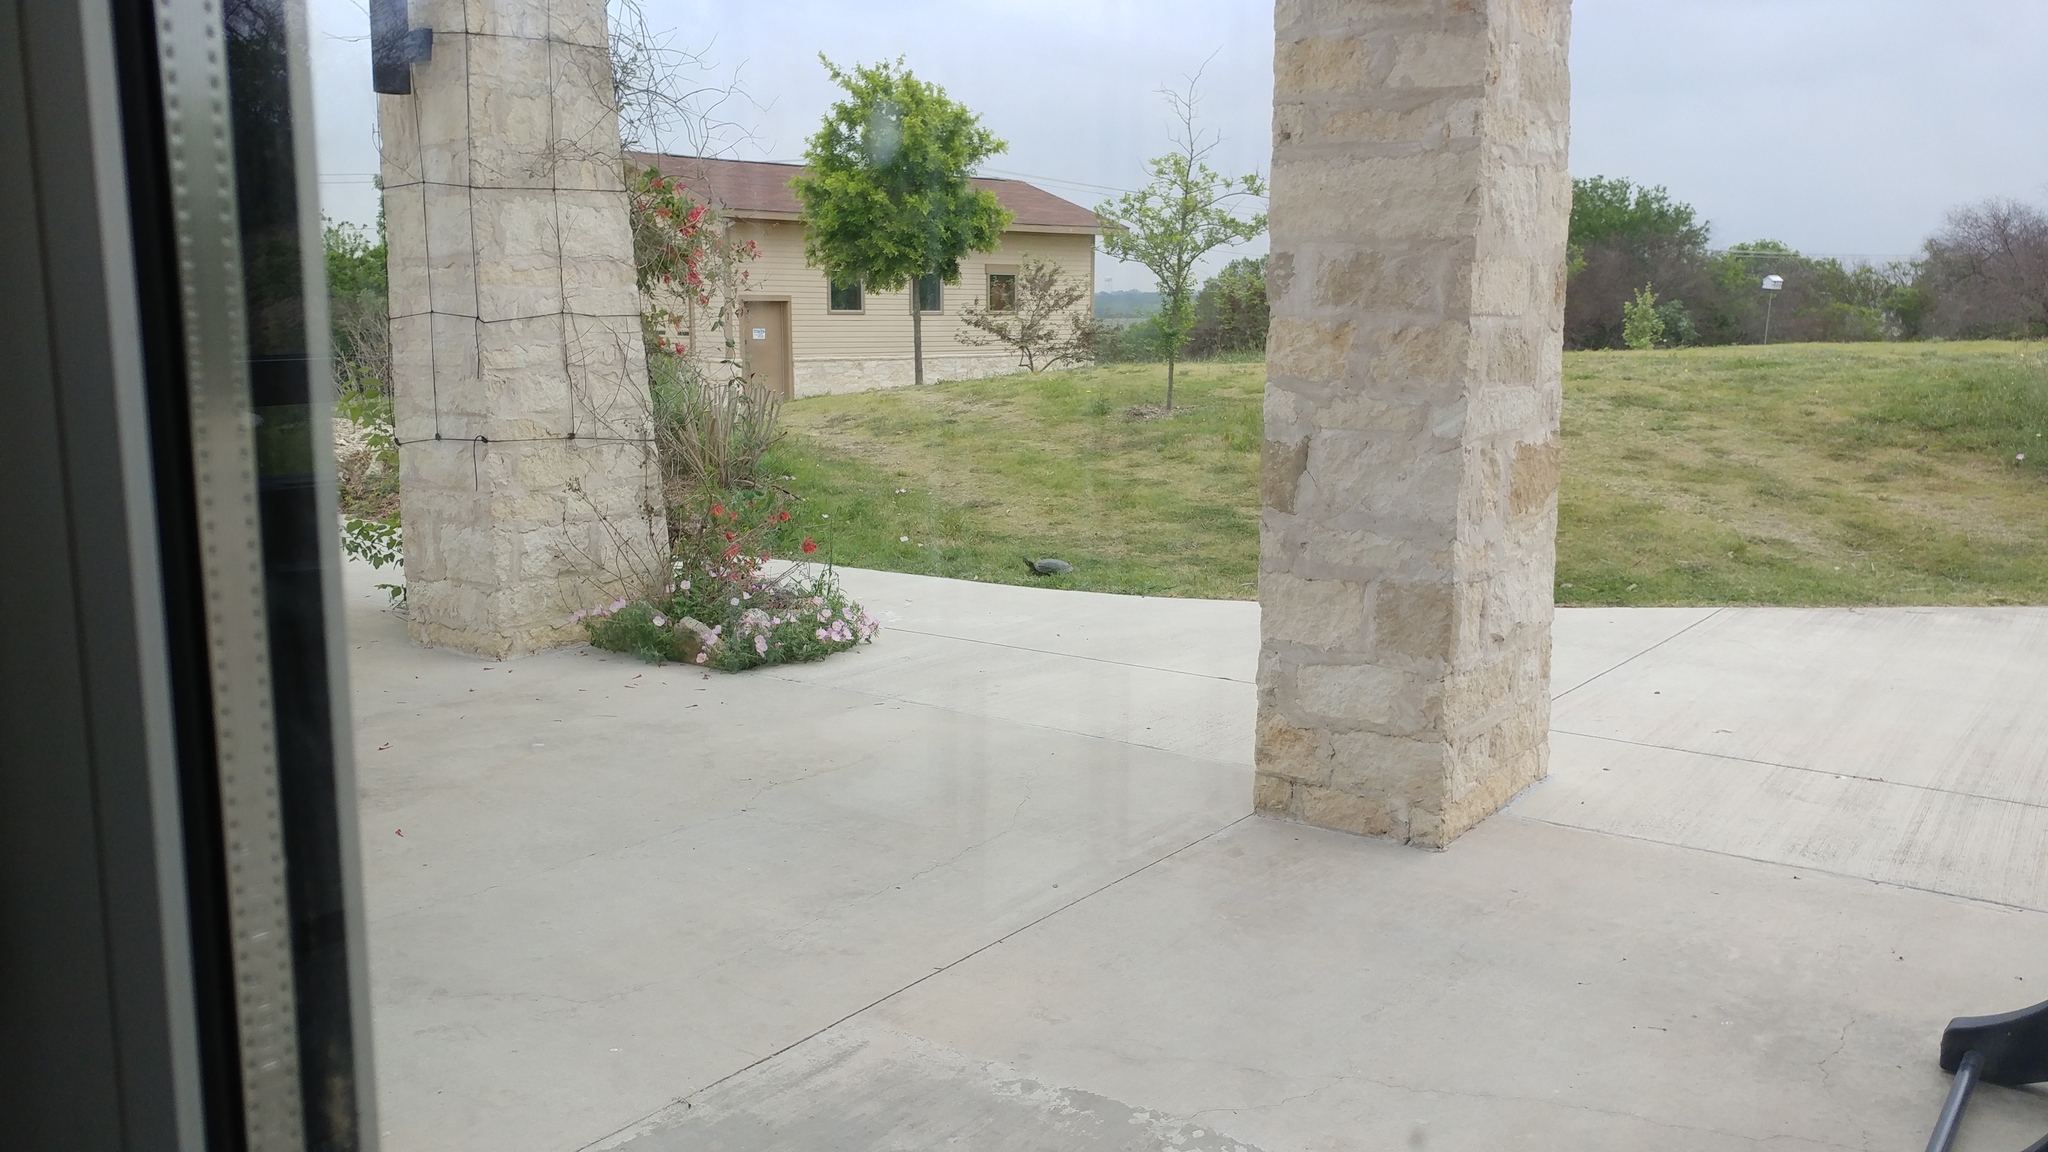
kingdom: Animalia
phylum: Chordata
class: Testudines
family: Emydidae
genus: Pseudemys
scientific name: Pseudemys texana
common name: Texas river cooter
